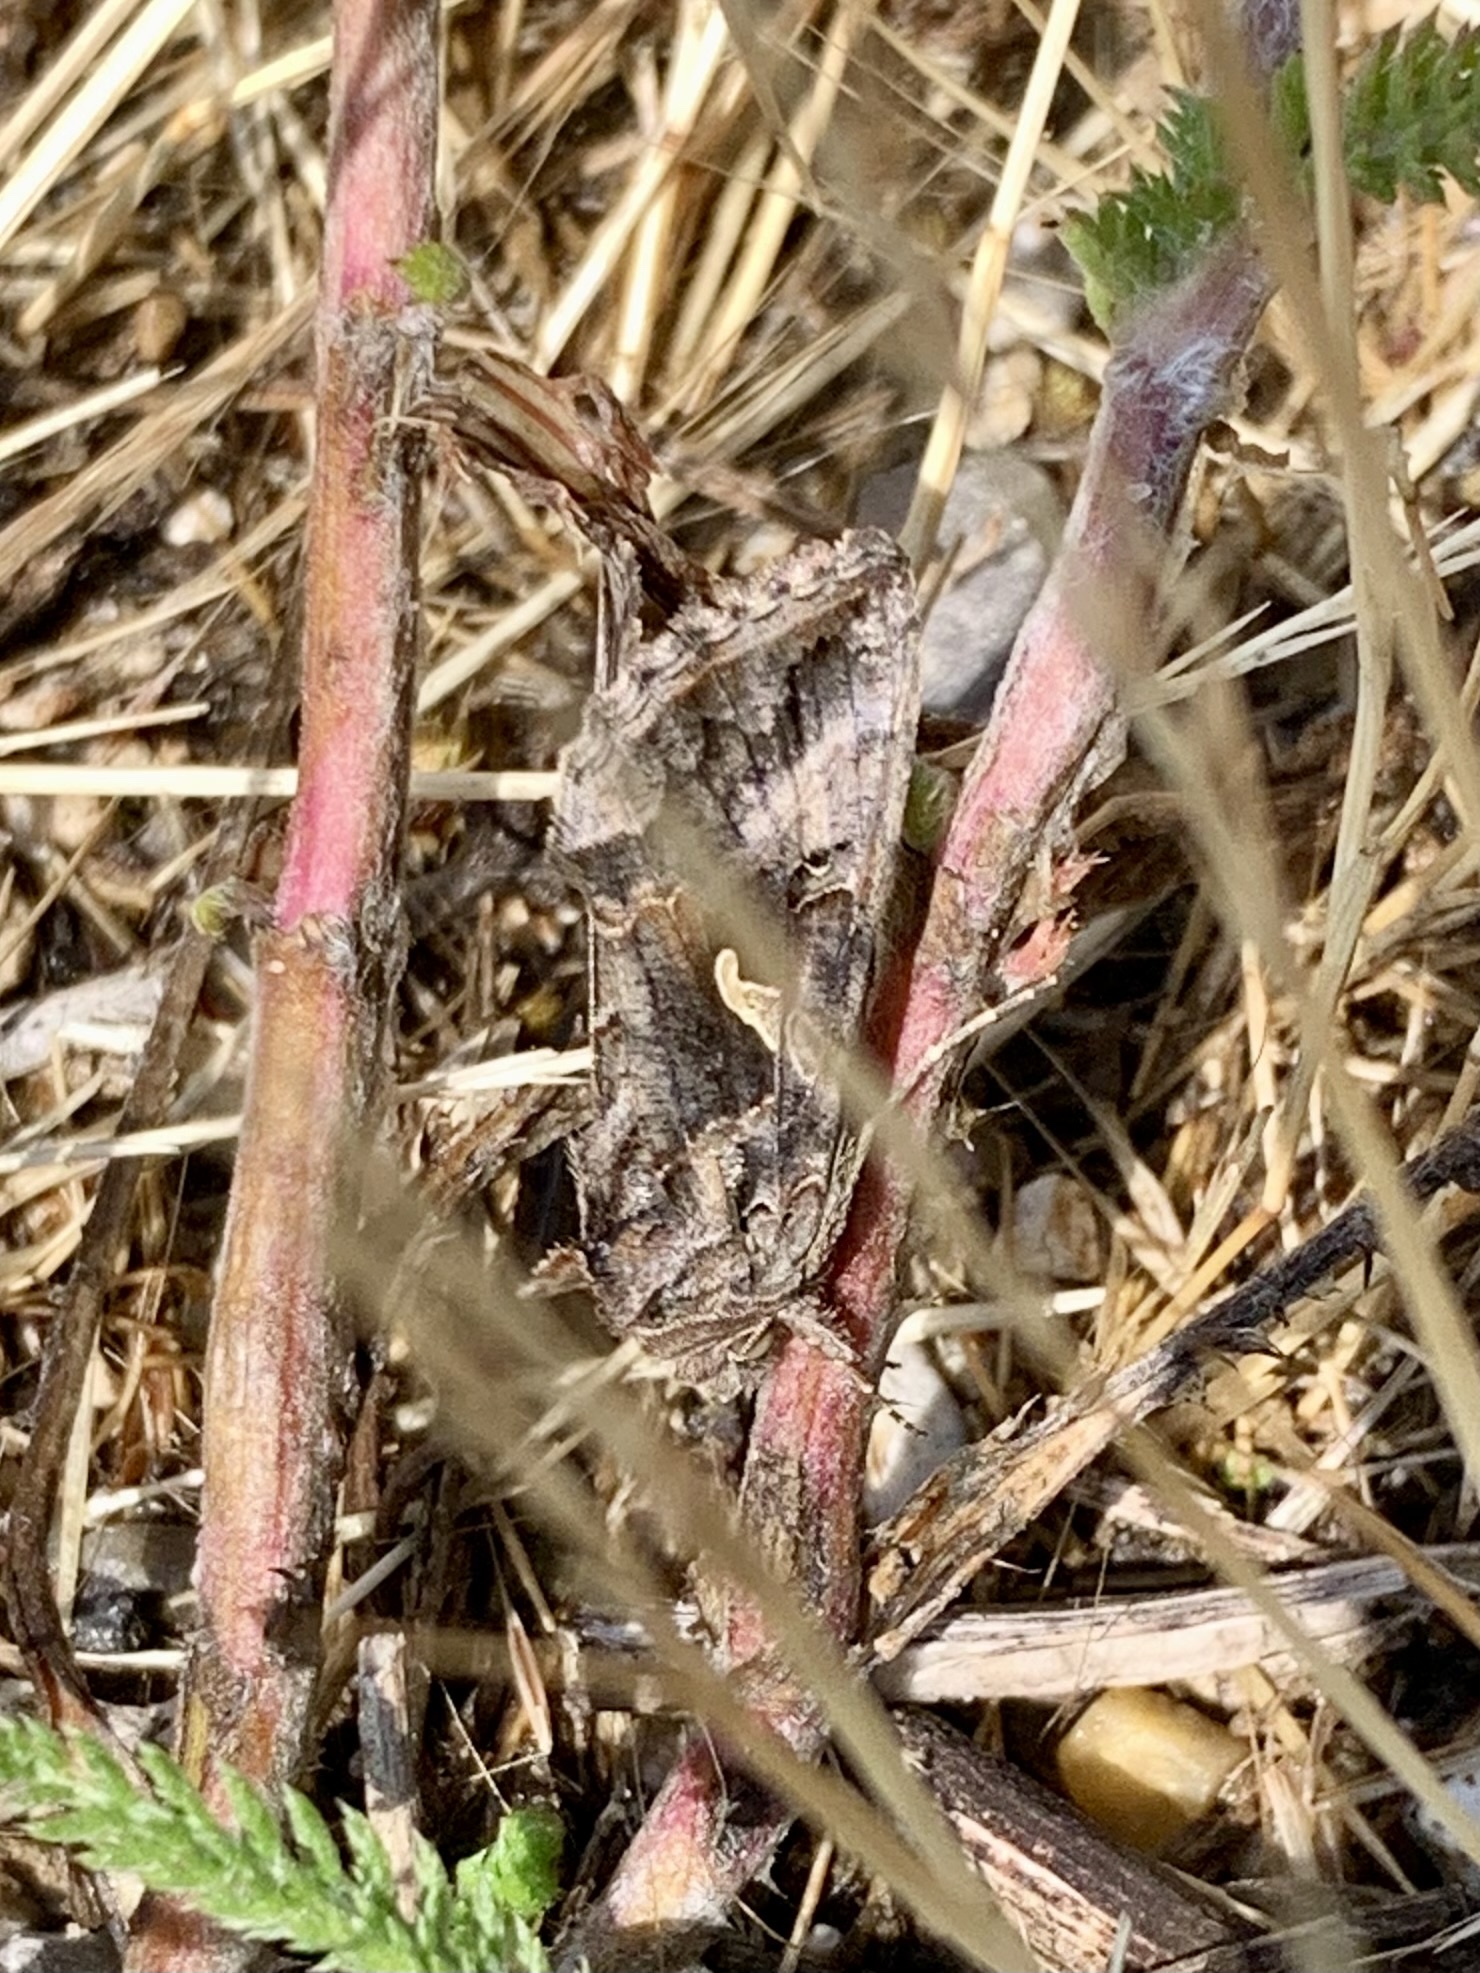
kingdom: Animalia
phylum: Arthropoda
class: Insecta
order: Lepidoptera
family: Noctuidae
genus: Autographa
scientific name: Autographa gamma
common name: Silver y
